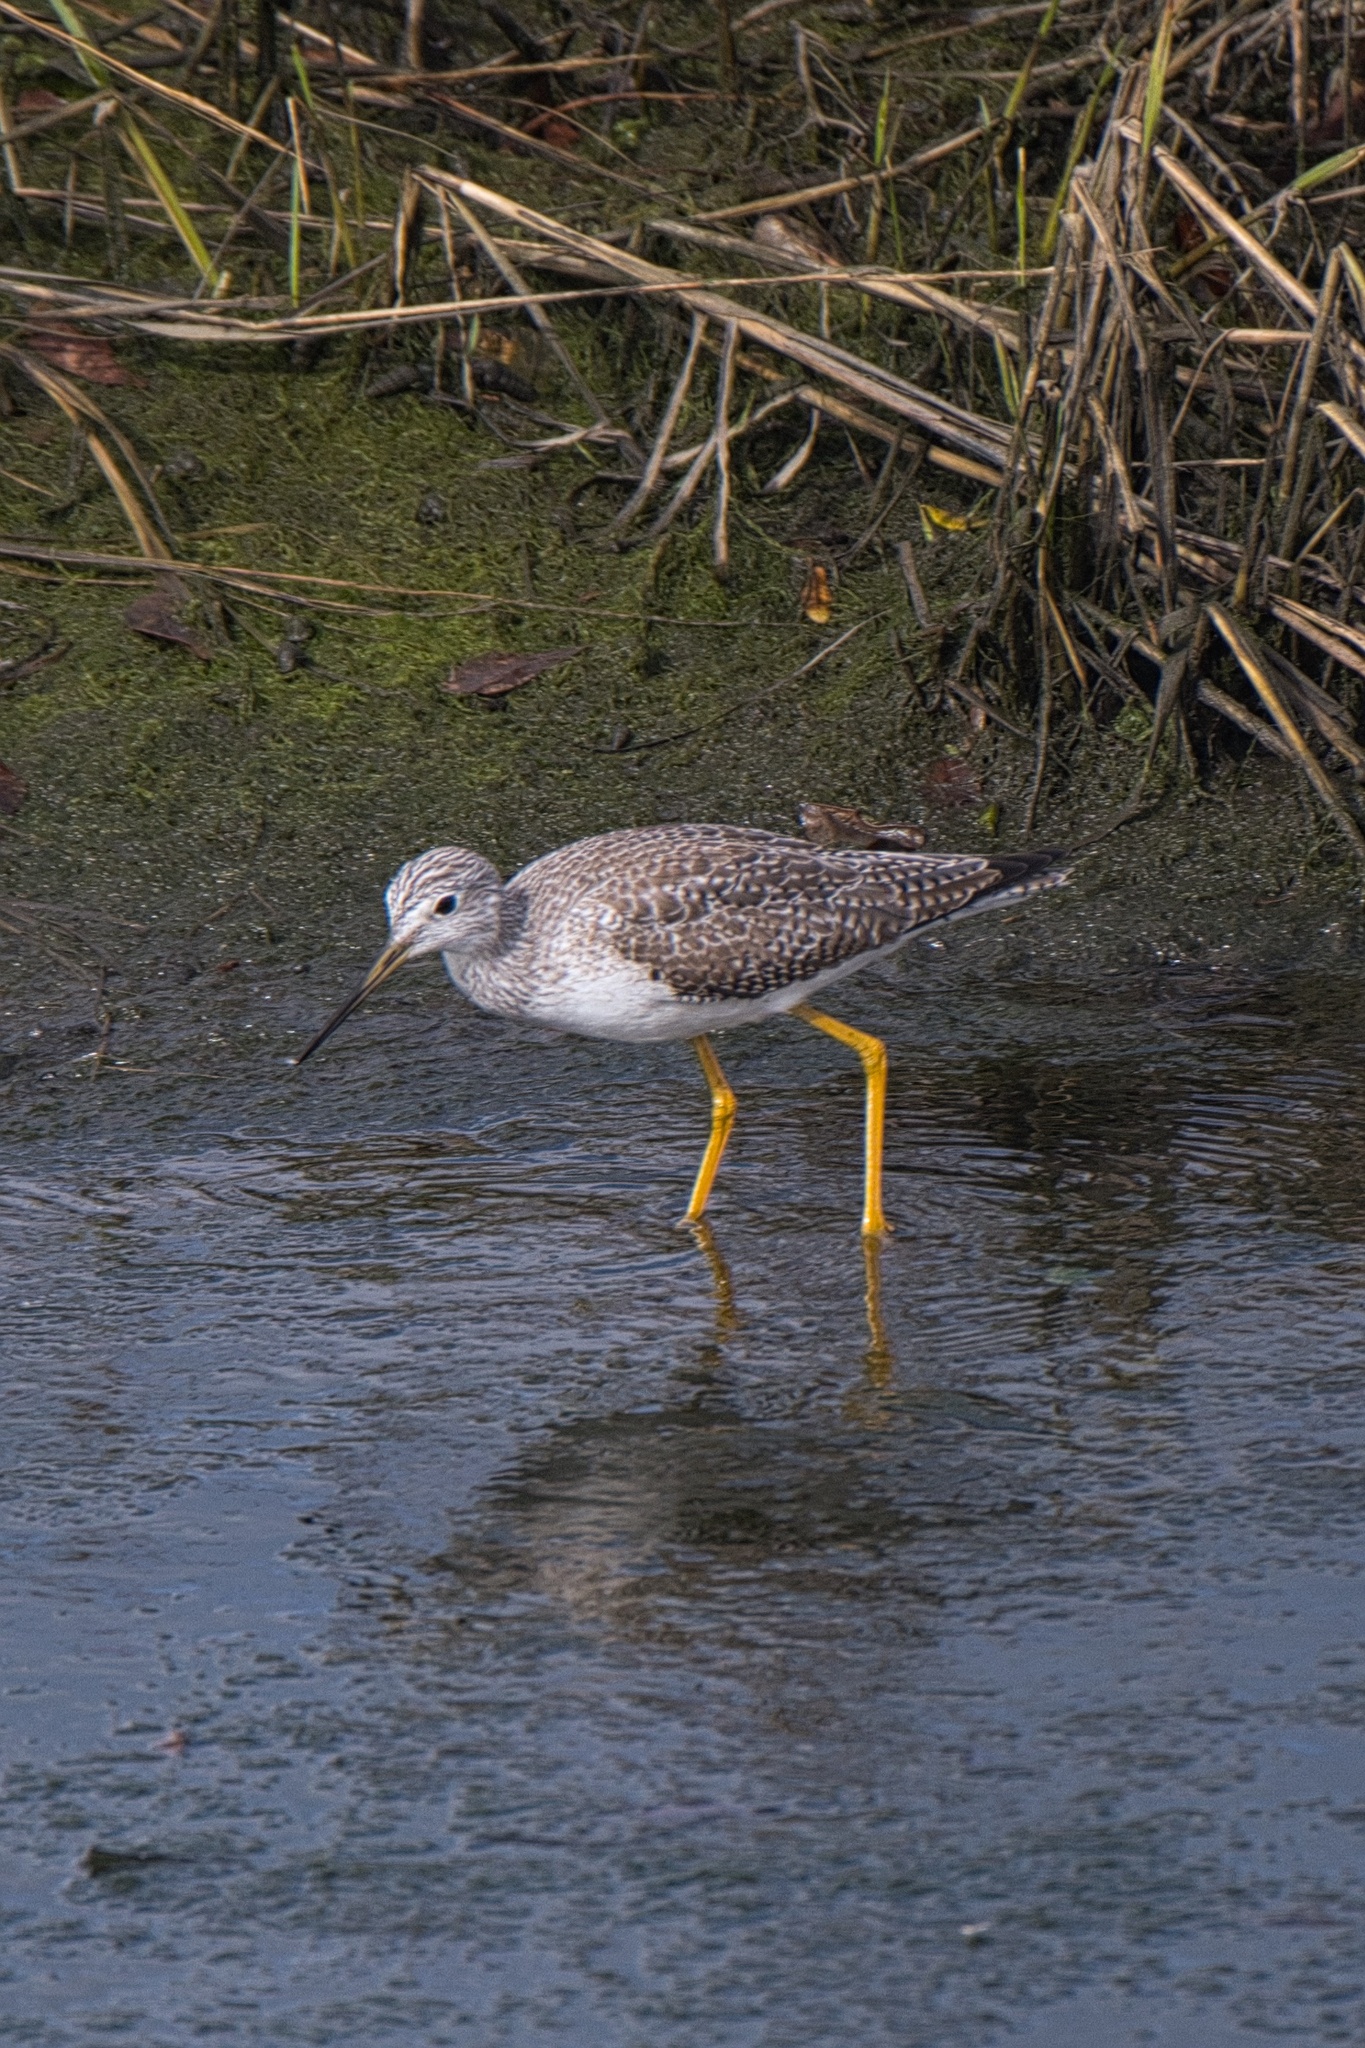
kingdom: Animalia
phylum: Chordata
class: Aves
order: Charadriiformes
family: Scolopacidae
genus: Tringa
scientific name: Tringa melanoleuca
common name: Greater yellowlegs
